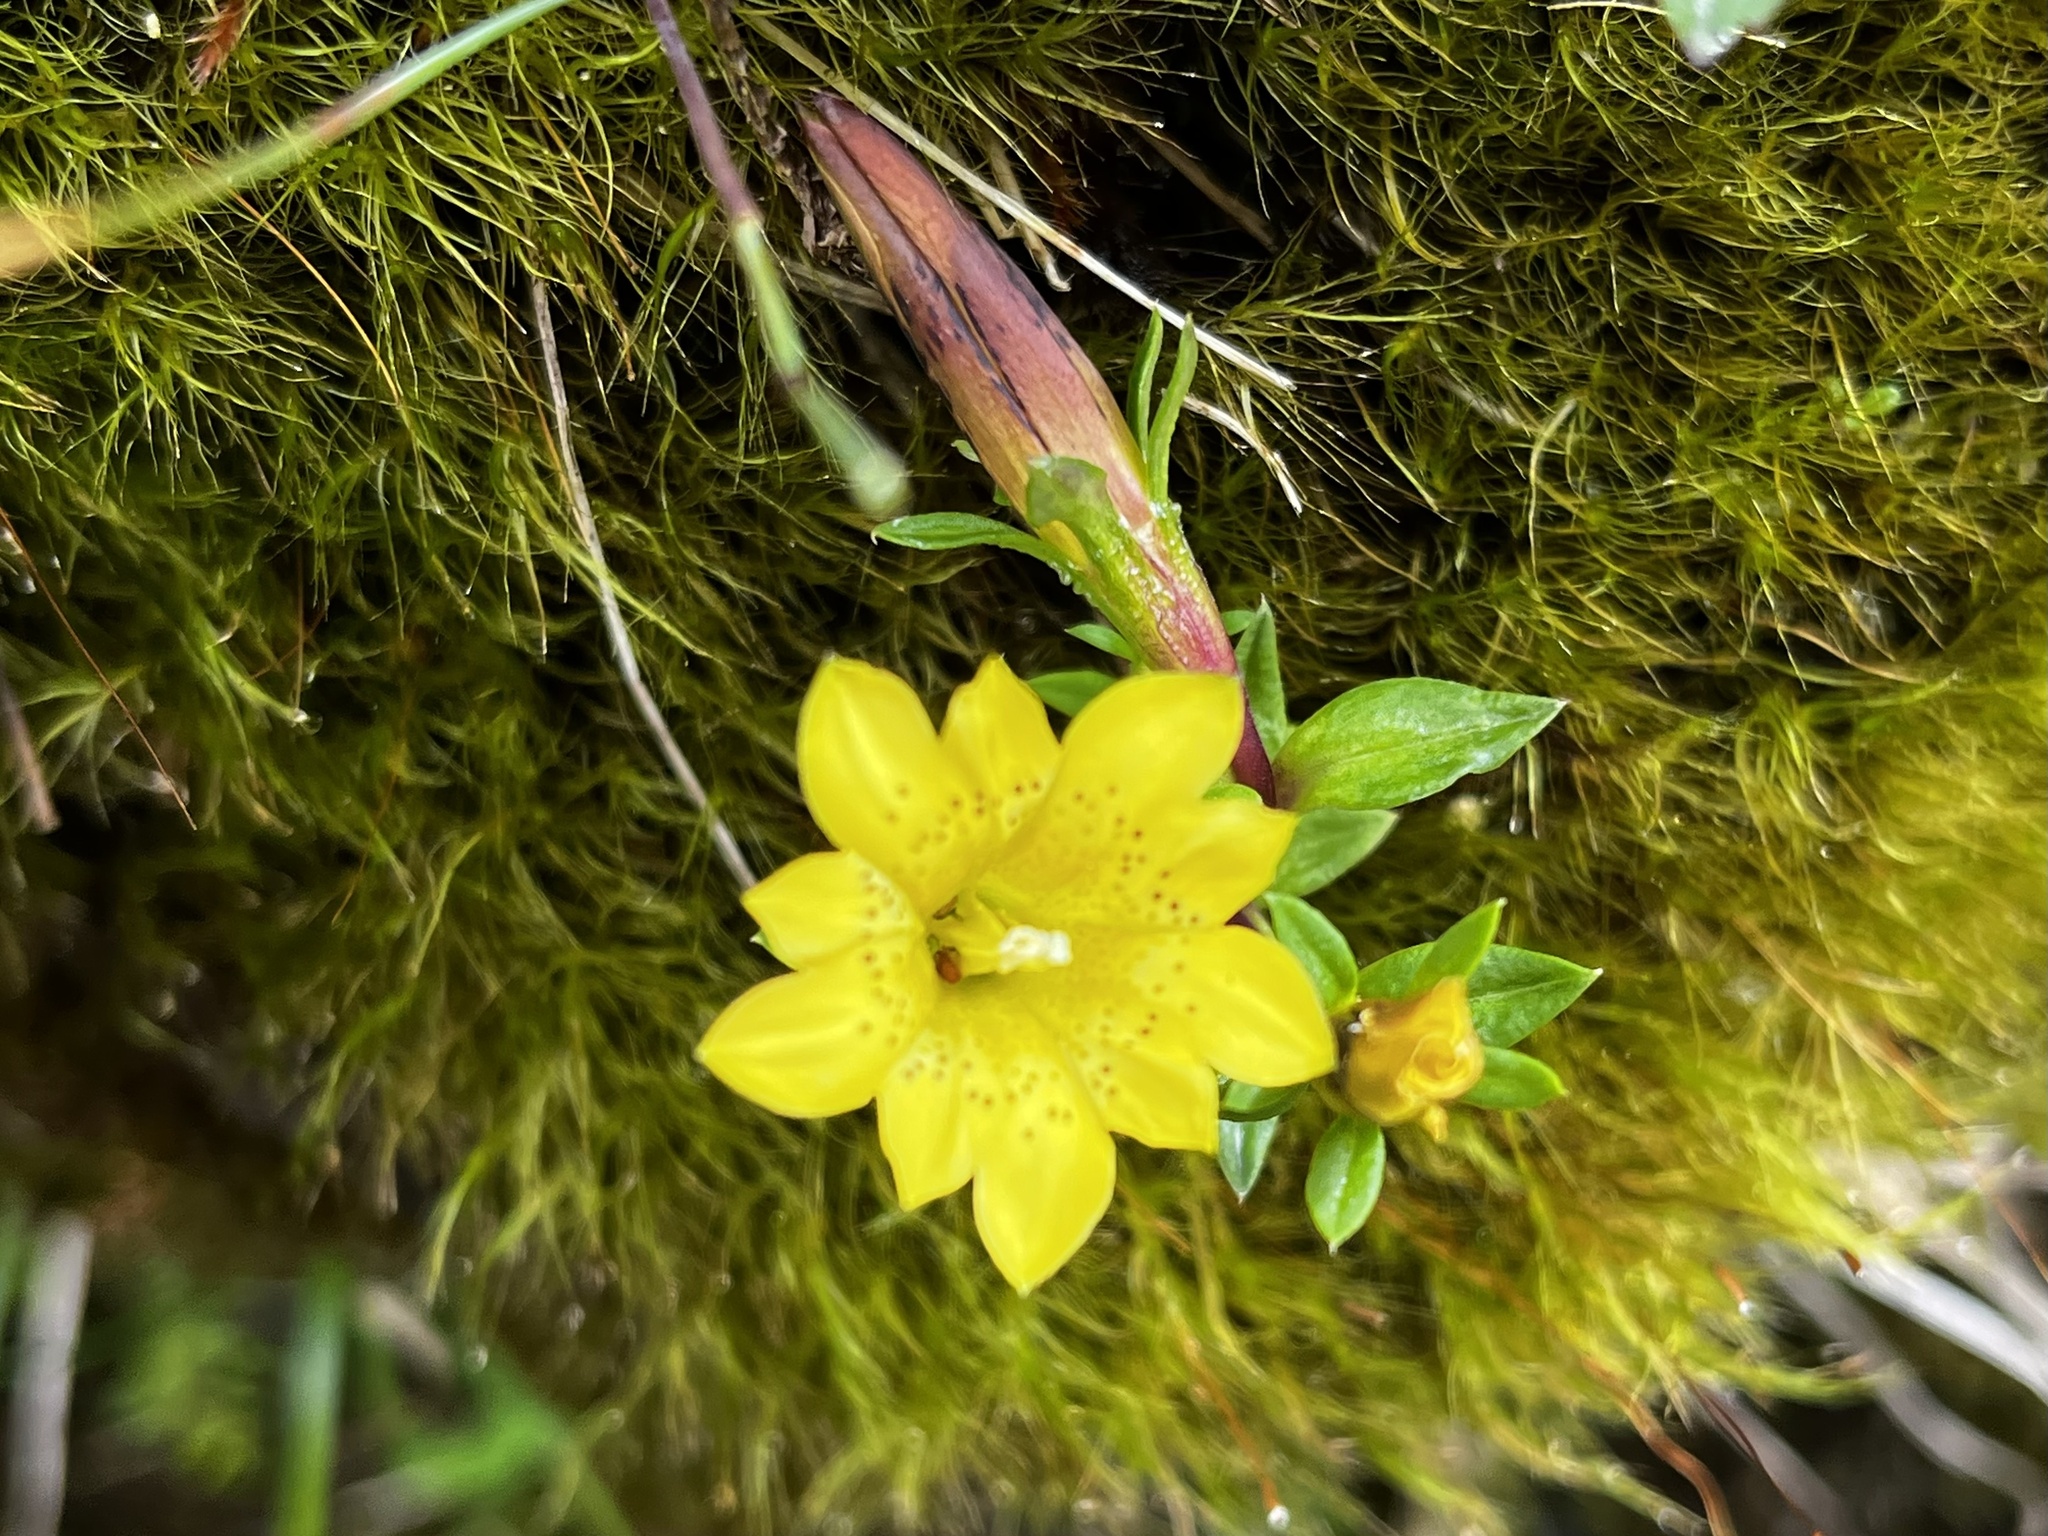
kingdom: Plantae
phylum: Tracheophyta
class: Magnoliopsida
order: Gentianales
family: Gentianaceae
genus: Gentiana
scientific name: Gentiana scabrida
